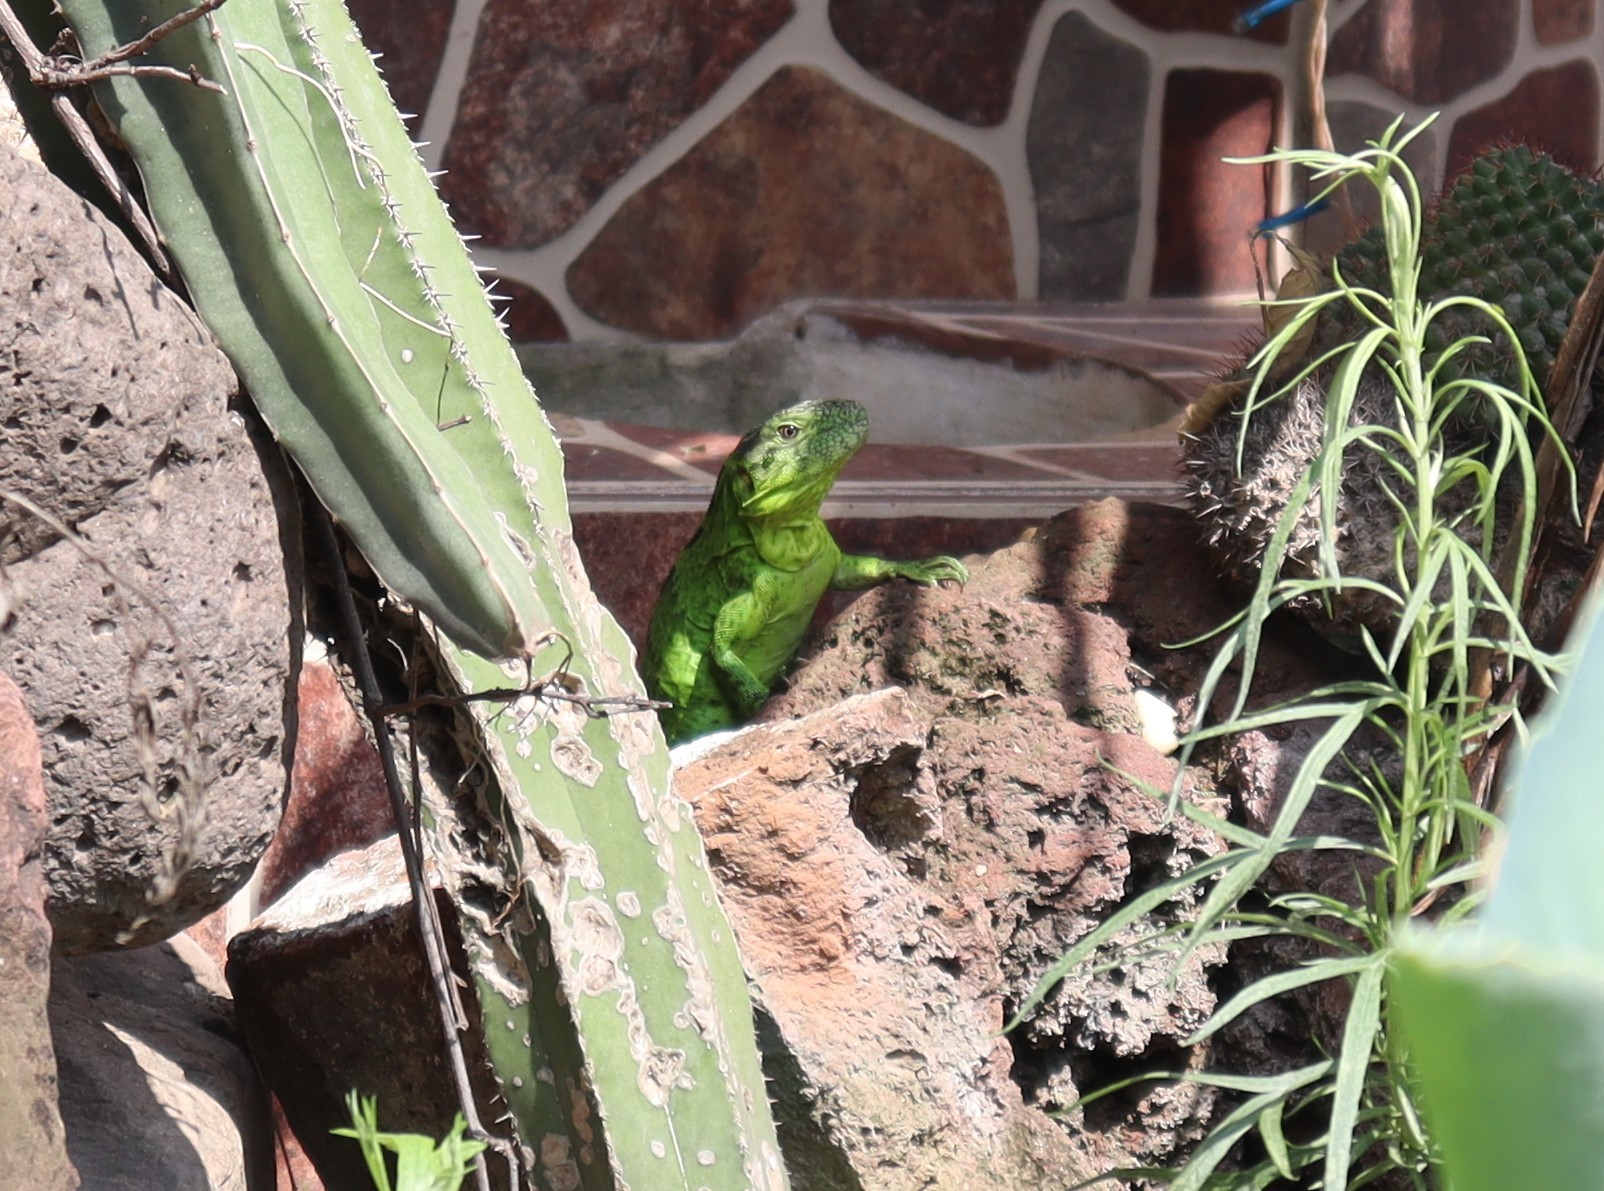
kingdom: Animalia
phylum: Chordata
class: Squamata
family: Iguanidae
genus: Ctenosaura
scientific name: Ctenosaura pectinata
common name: Guerreran spiny-tailed iguana
